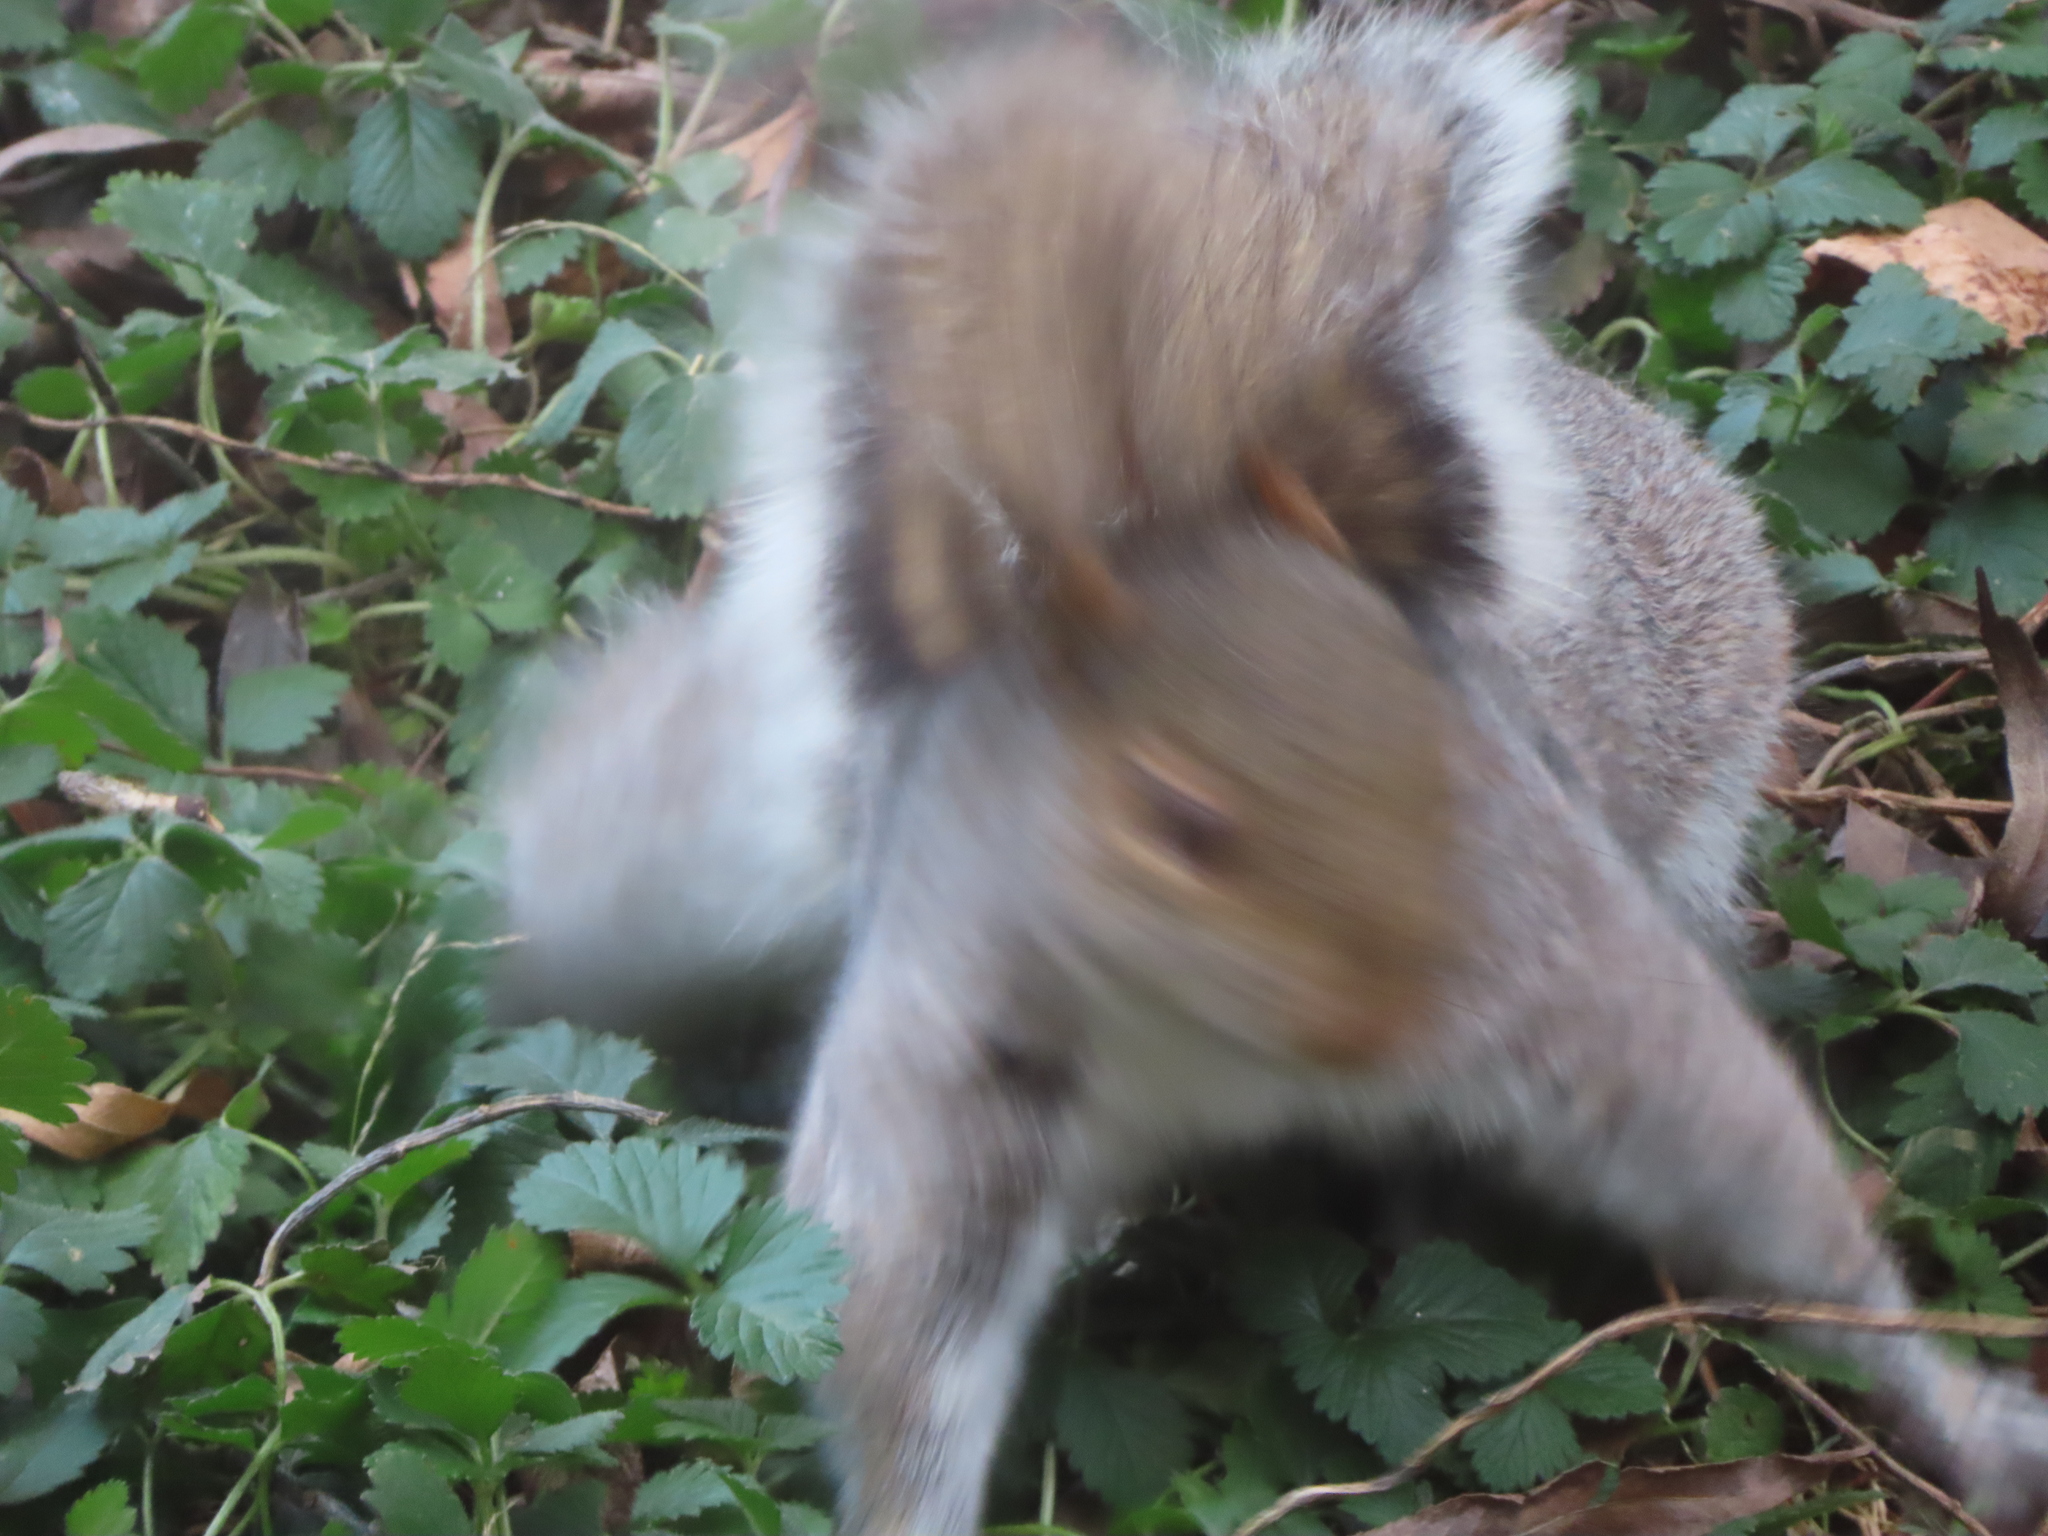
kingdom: Animalia
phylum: Chordata
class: Mammalia
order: Rodentia
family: Sciuridae
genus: Sciurus
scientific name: Sciurus carolinensis
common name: Eastern gray squirrel
